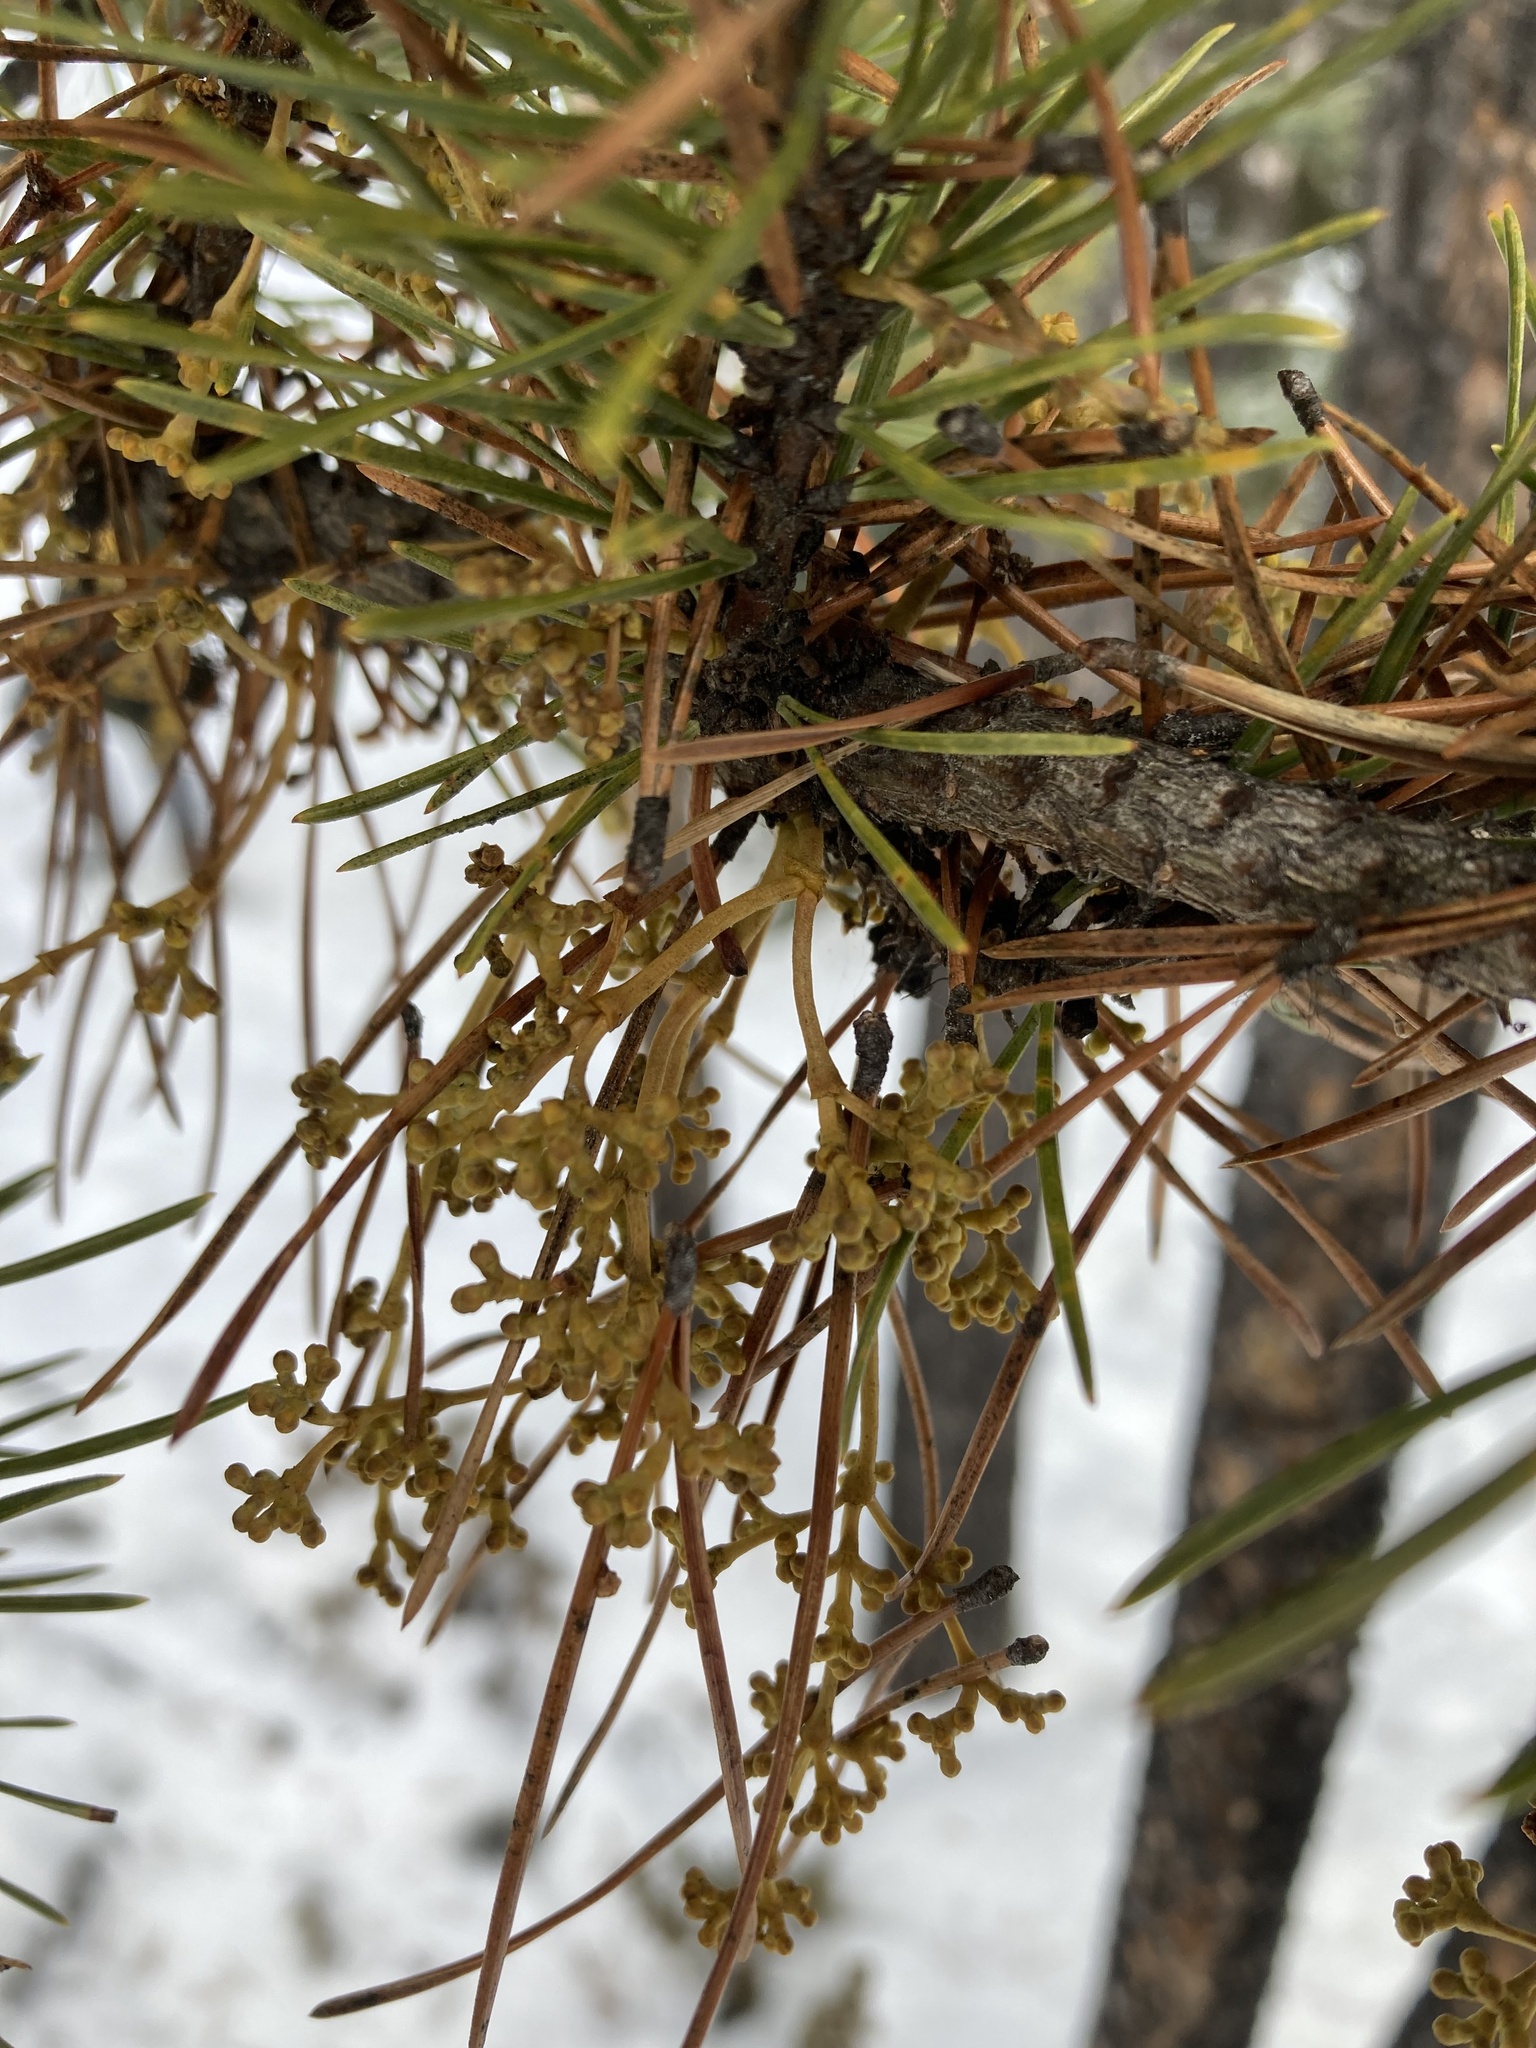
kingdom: Plantae
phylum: Tracheophyta
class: Magnoliopsida
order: Santalales
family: Viscaceae
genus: Arceuthobium
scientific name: Arceuthobium americanum
